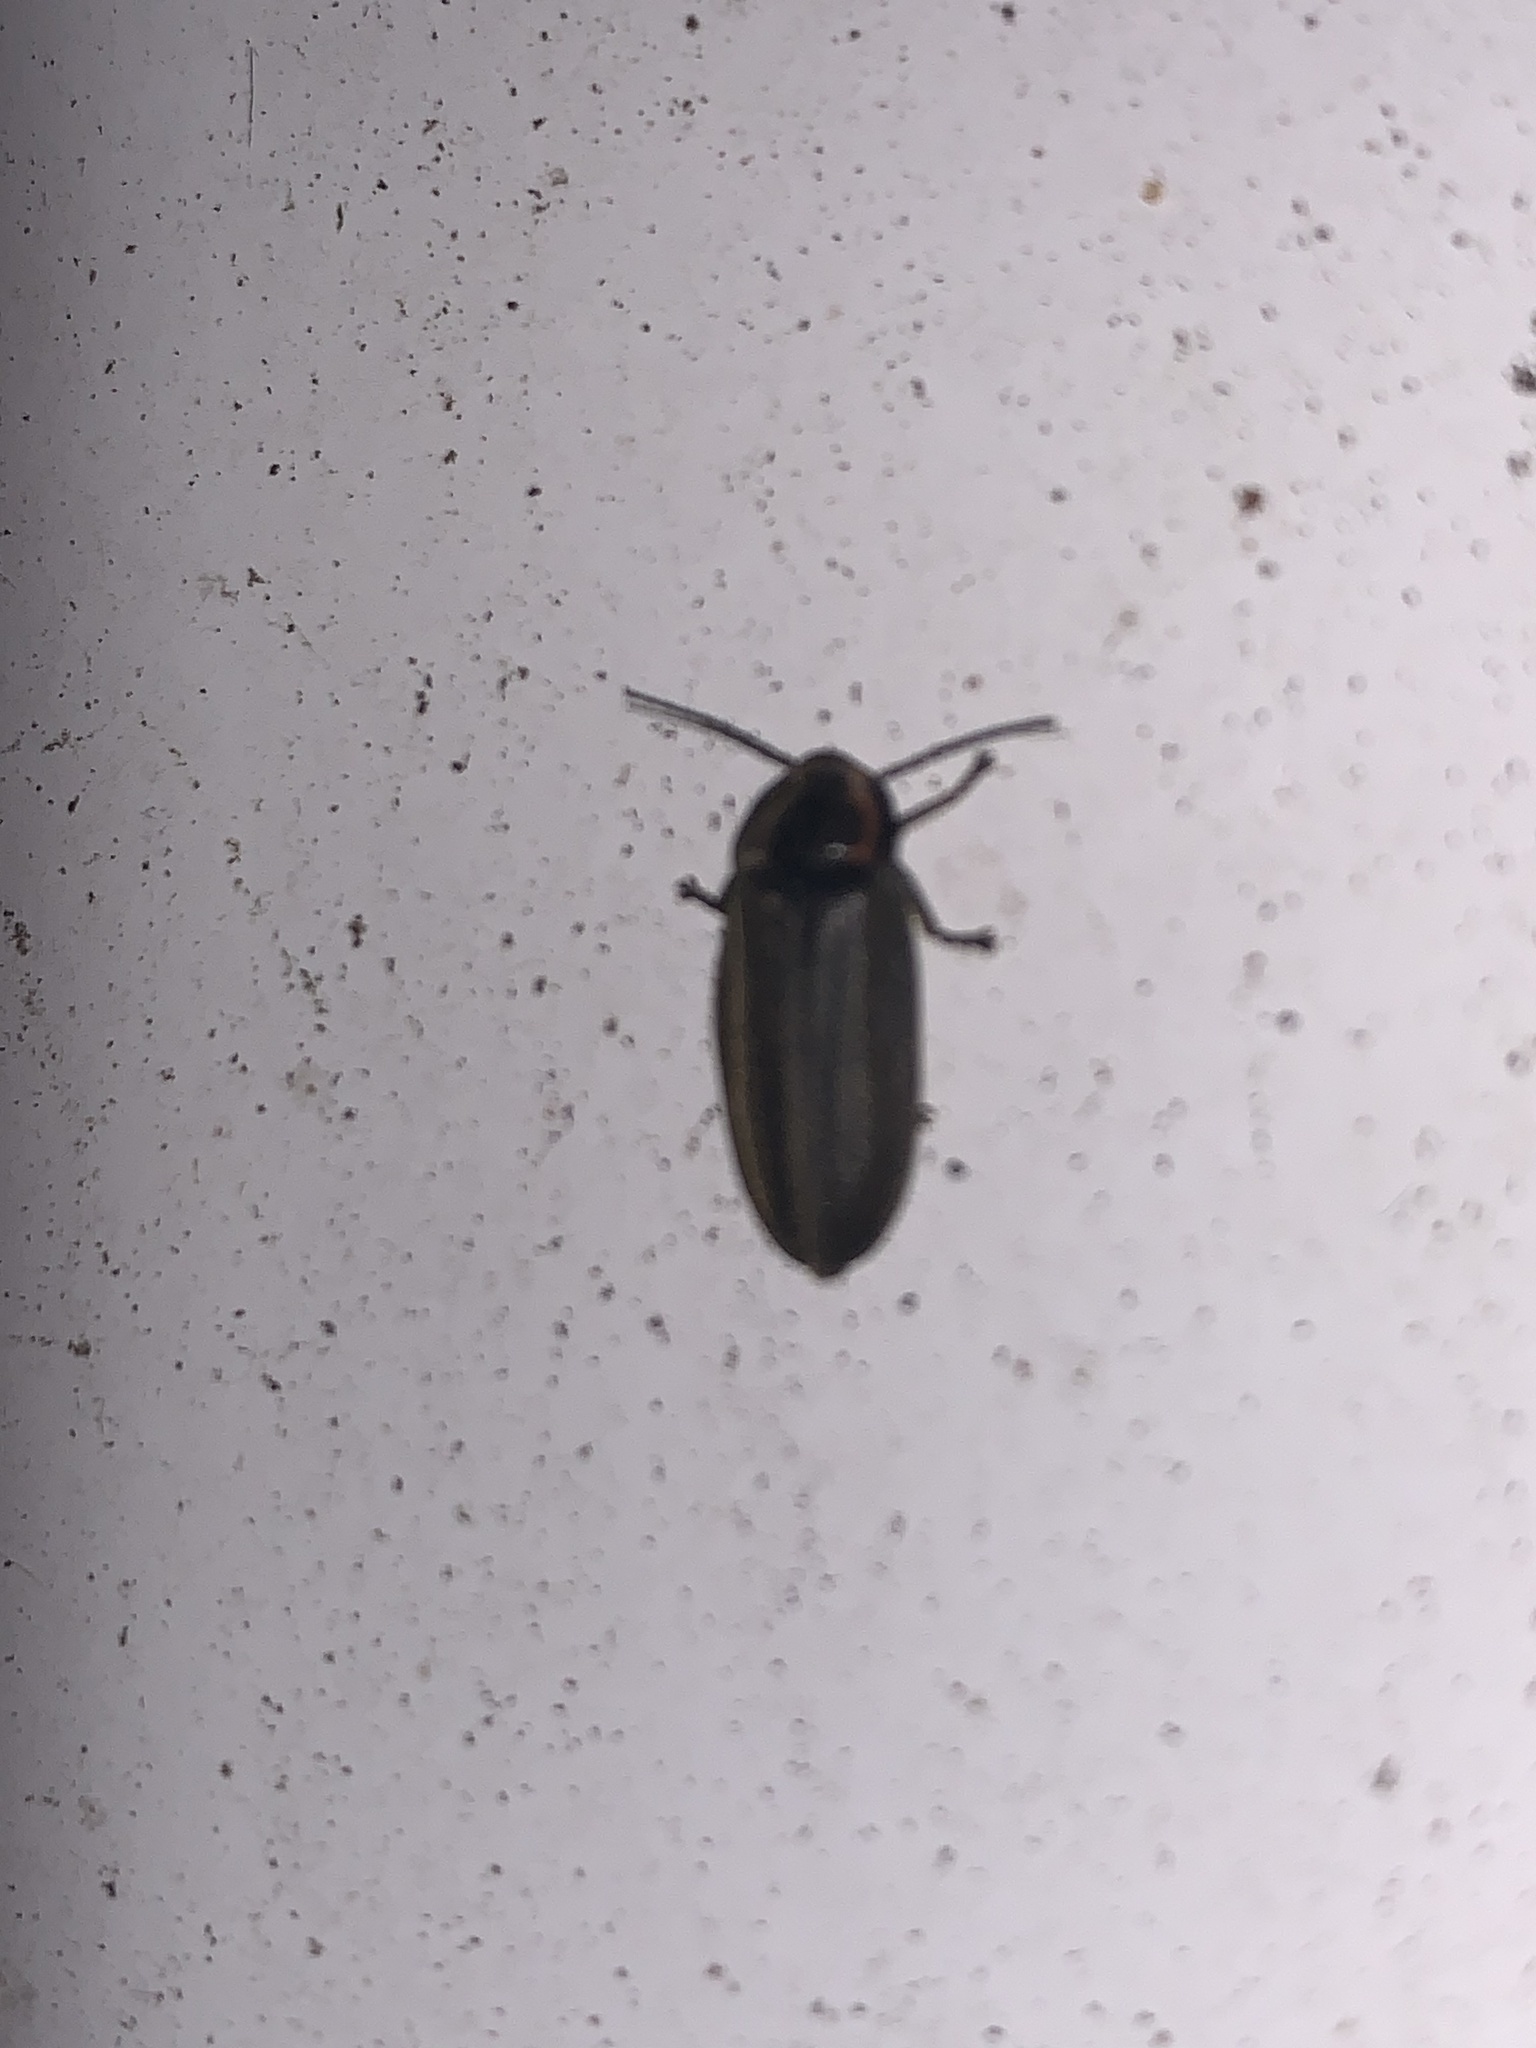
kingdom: Animalia
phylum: Arthropoda
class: Insecta
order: Coleoptera
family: Lampyridae
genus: Photinus
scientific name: Photinus corrusca
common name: Winter firefly
